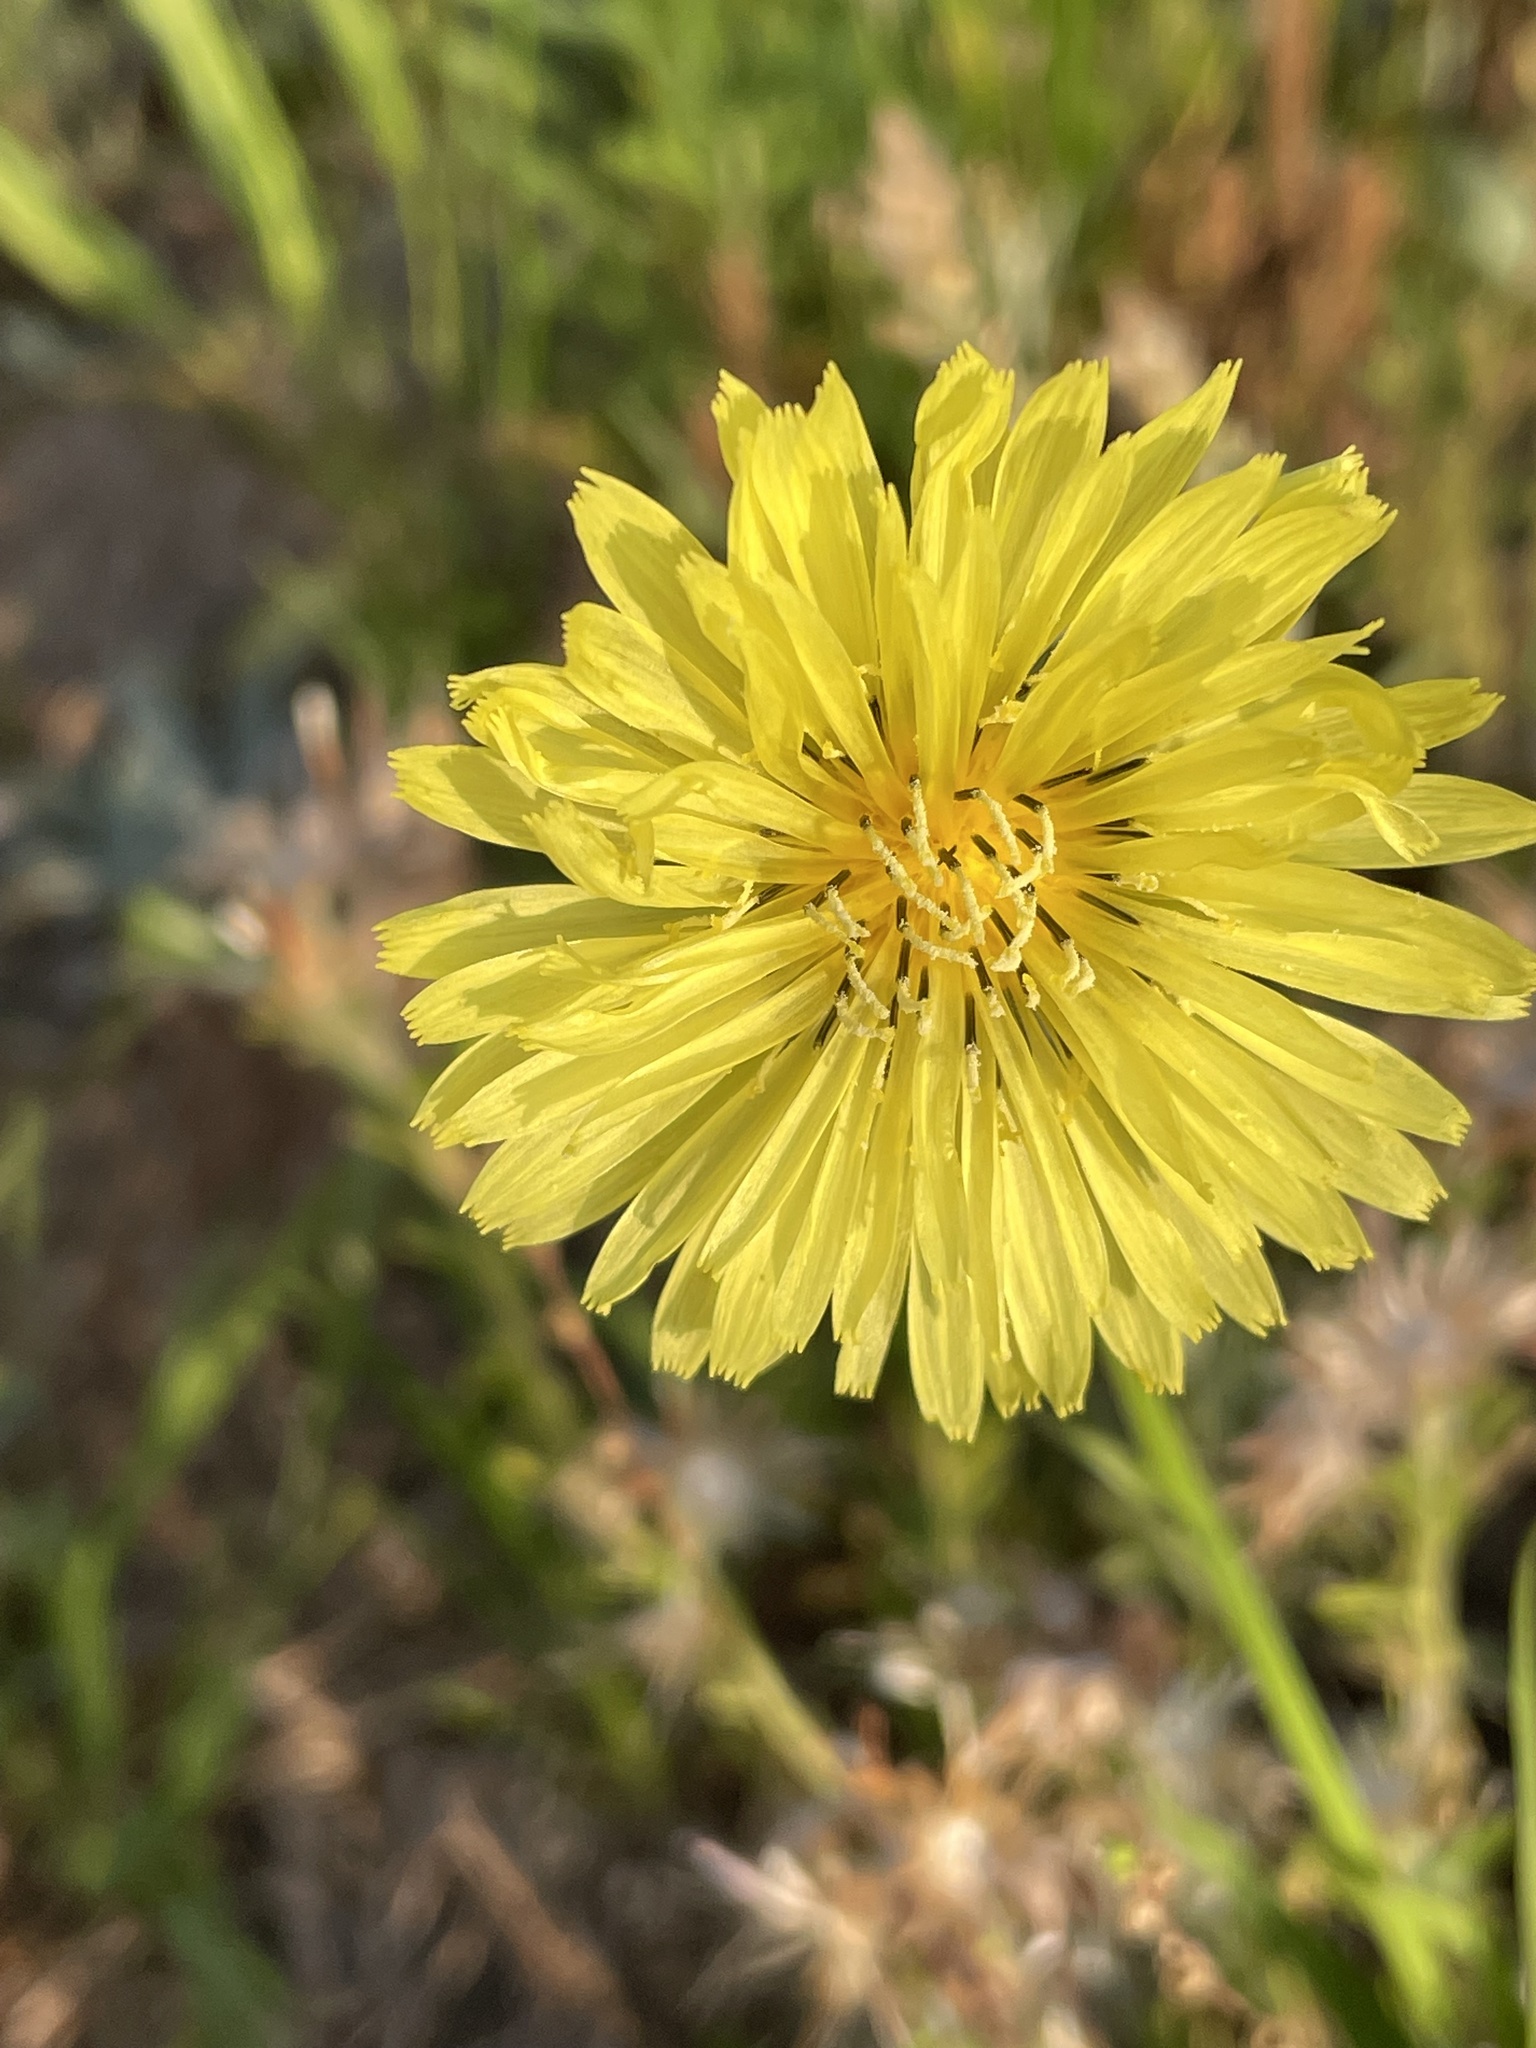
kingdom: Plantae
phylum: Tracheophyta
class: Magnoliopsida
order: Asterales
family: Asteraceae
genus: Pyrrhopappus
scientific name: Pyrrhopappus carolinianus
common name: Carolina desert-chicory
